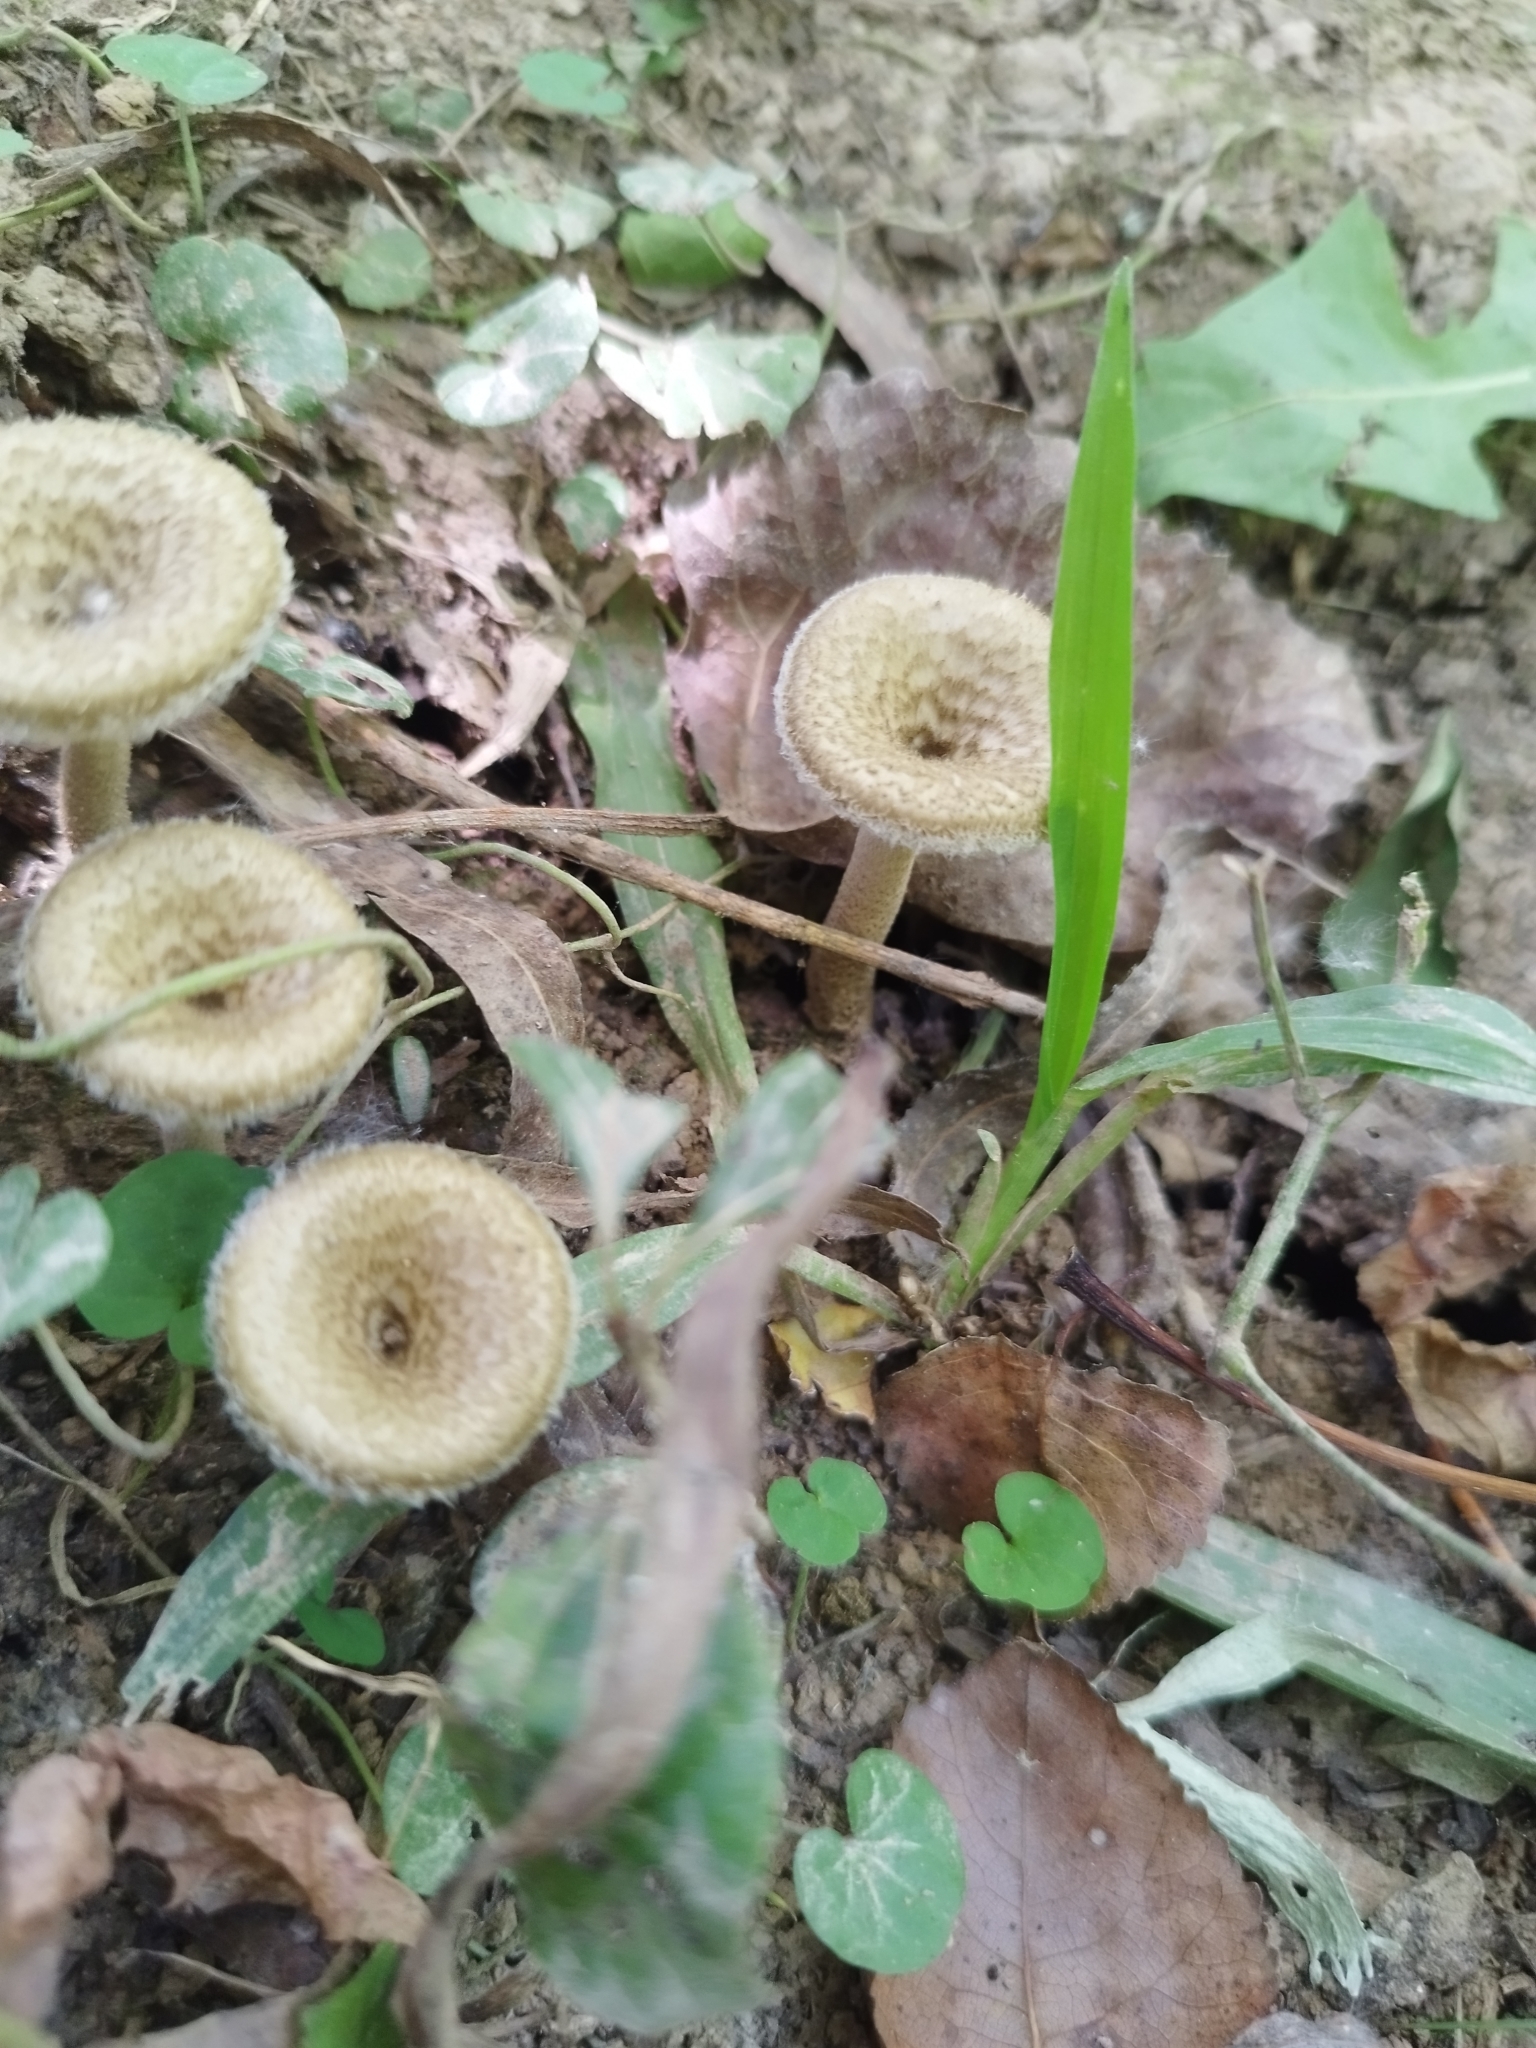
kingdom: Fungi
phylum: Basidiomycota
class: Agaricomycetes
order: Polyporales
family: Polyporaceae
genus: Lentinus
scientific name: Lentinus crinitus
